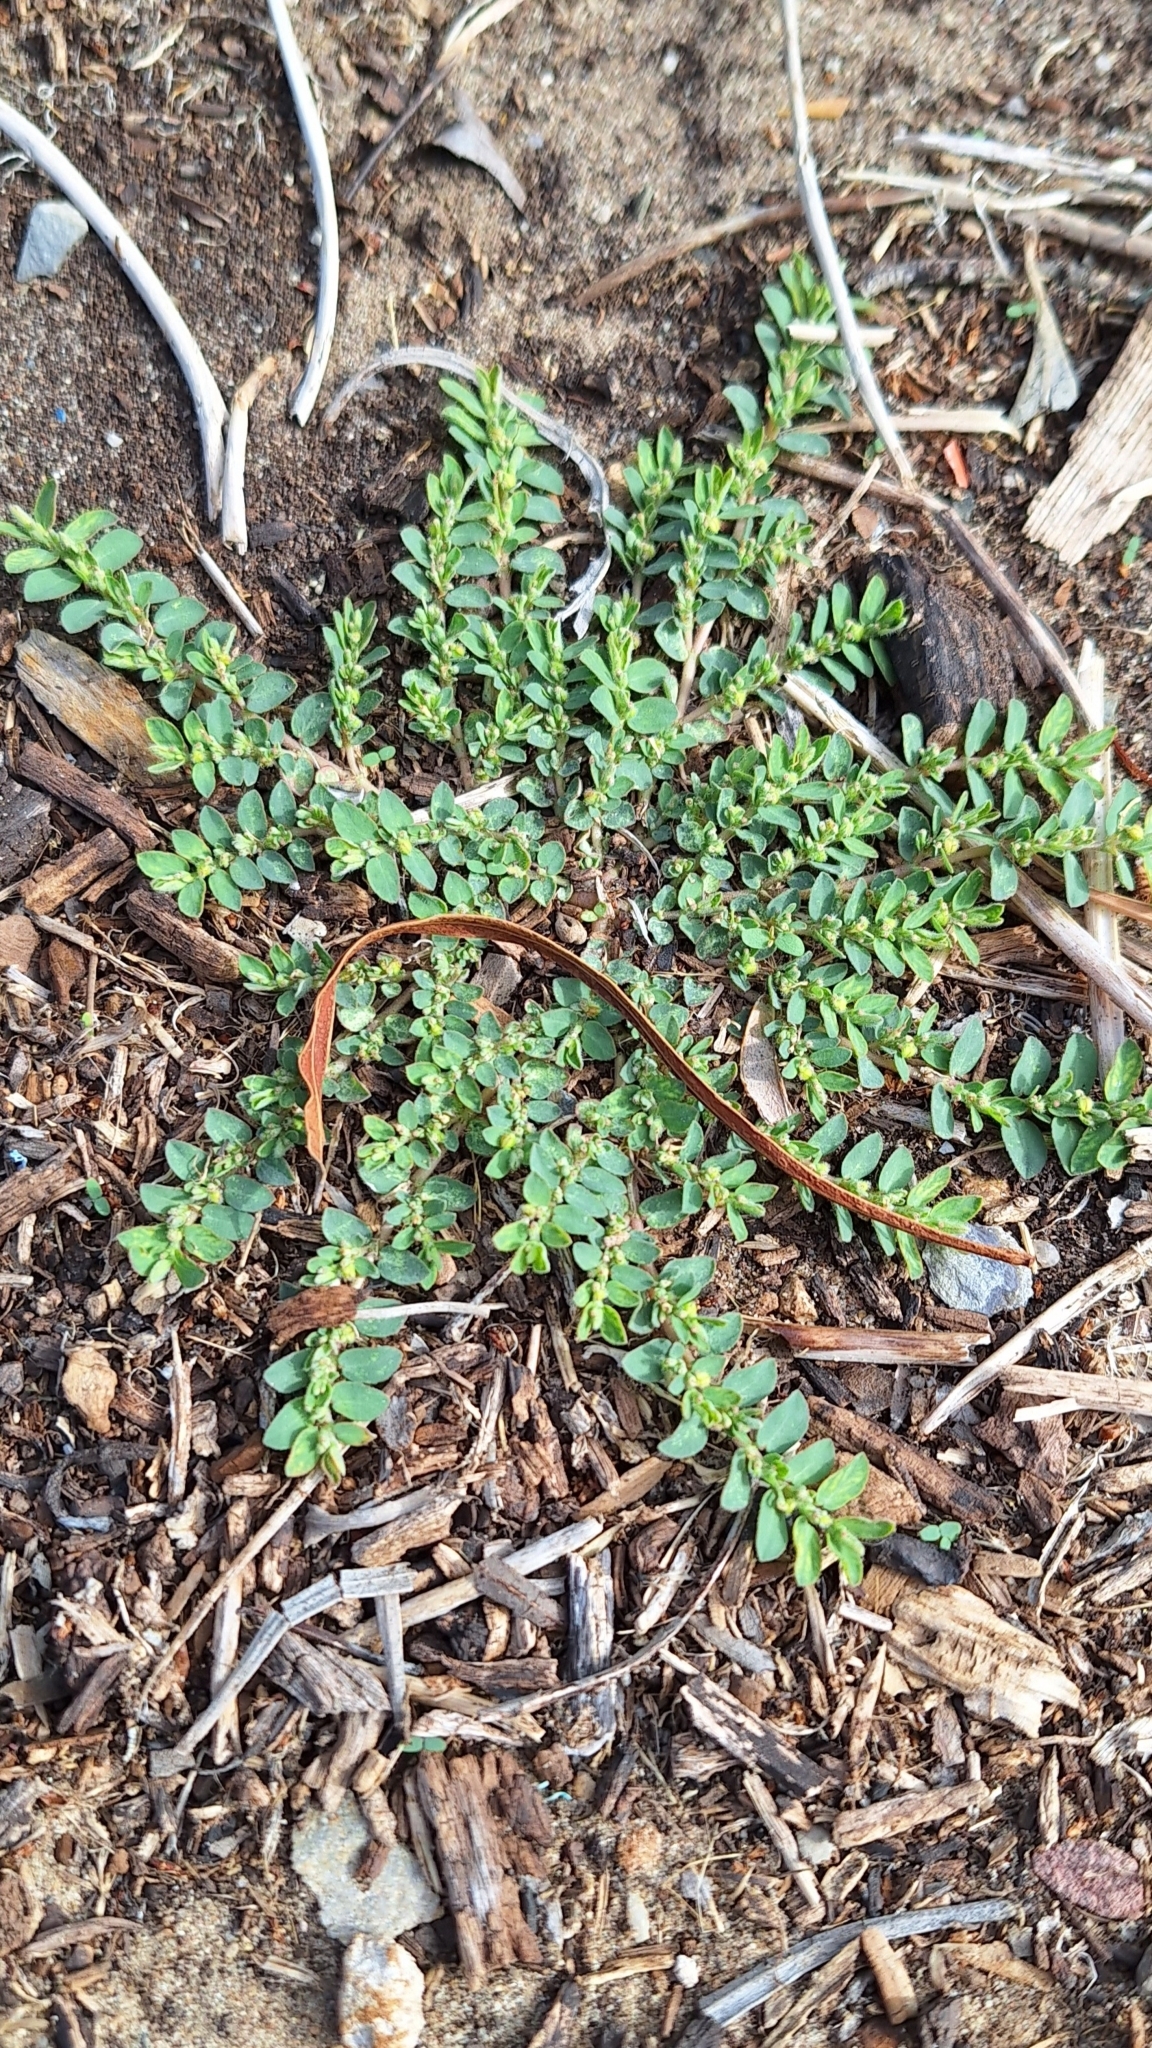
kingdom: Plantae
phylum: Tracheophyta
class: Magnoliopsida
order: Malpighiales
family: Euphorbiaceae
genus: Euphorbia
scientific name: Euphorbia prostrata
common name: Prostrate sandmat
